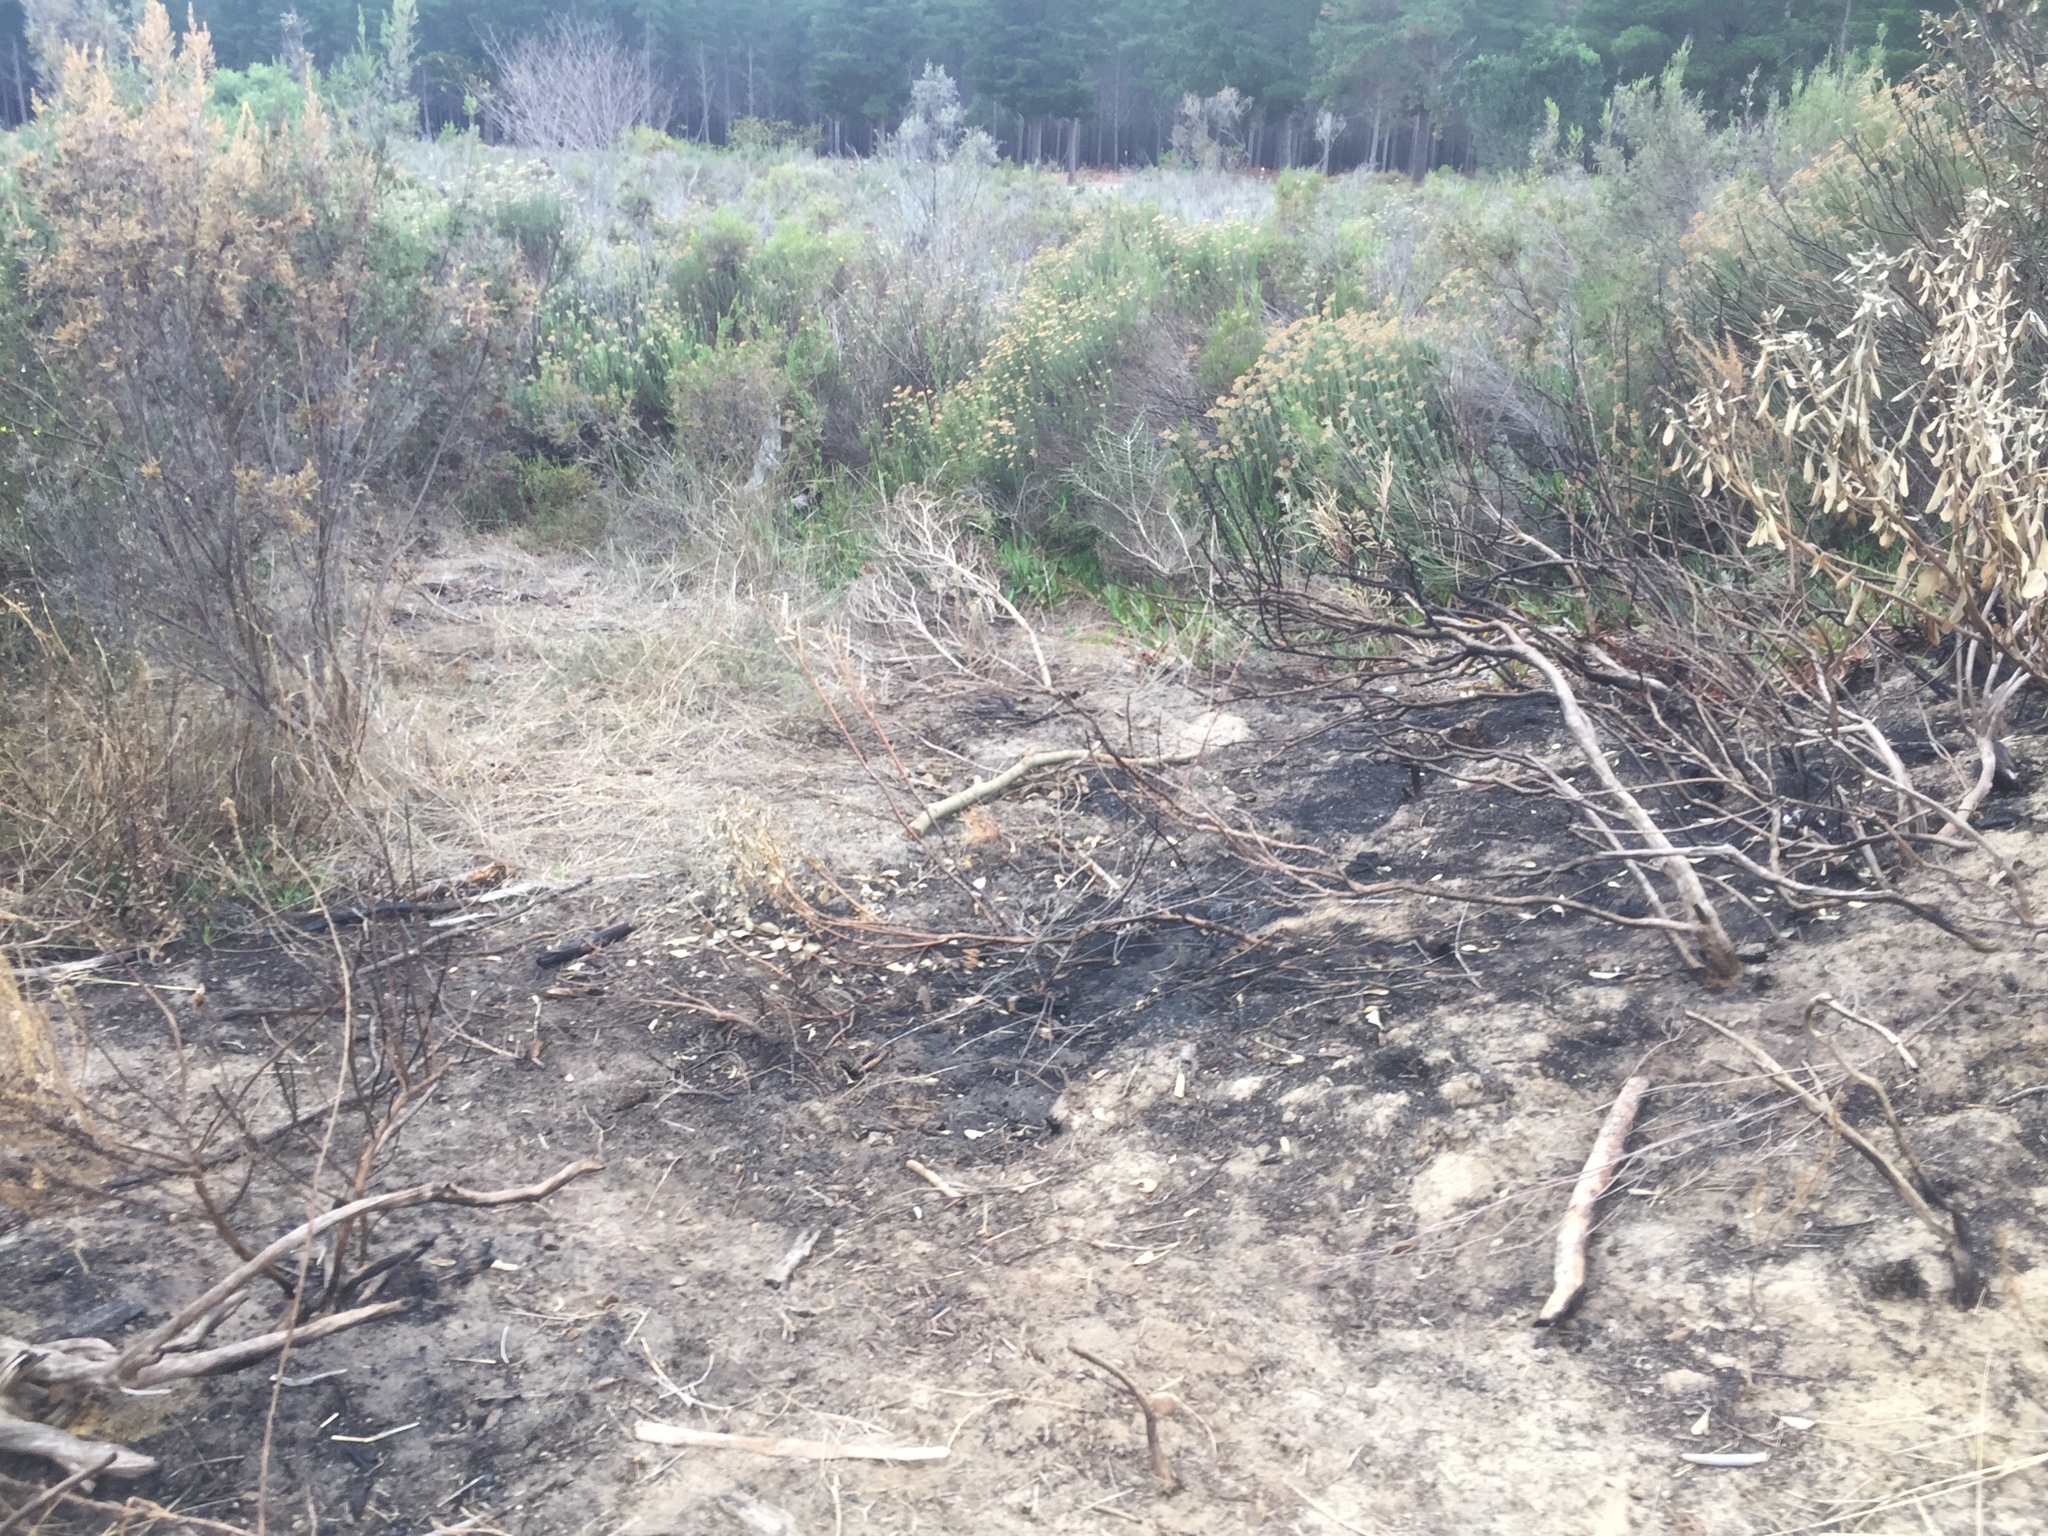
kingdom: Plantae
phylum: Tracheophyta
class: Magnoliopsida
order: Asterales
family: Asteraceae
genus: Metalasia
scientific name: Metalasia densa
